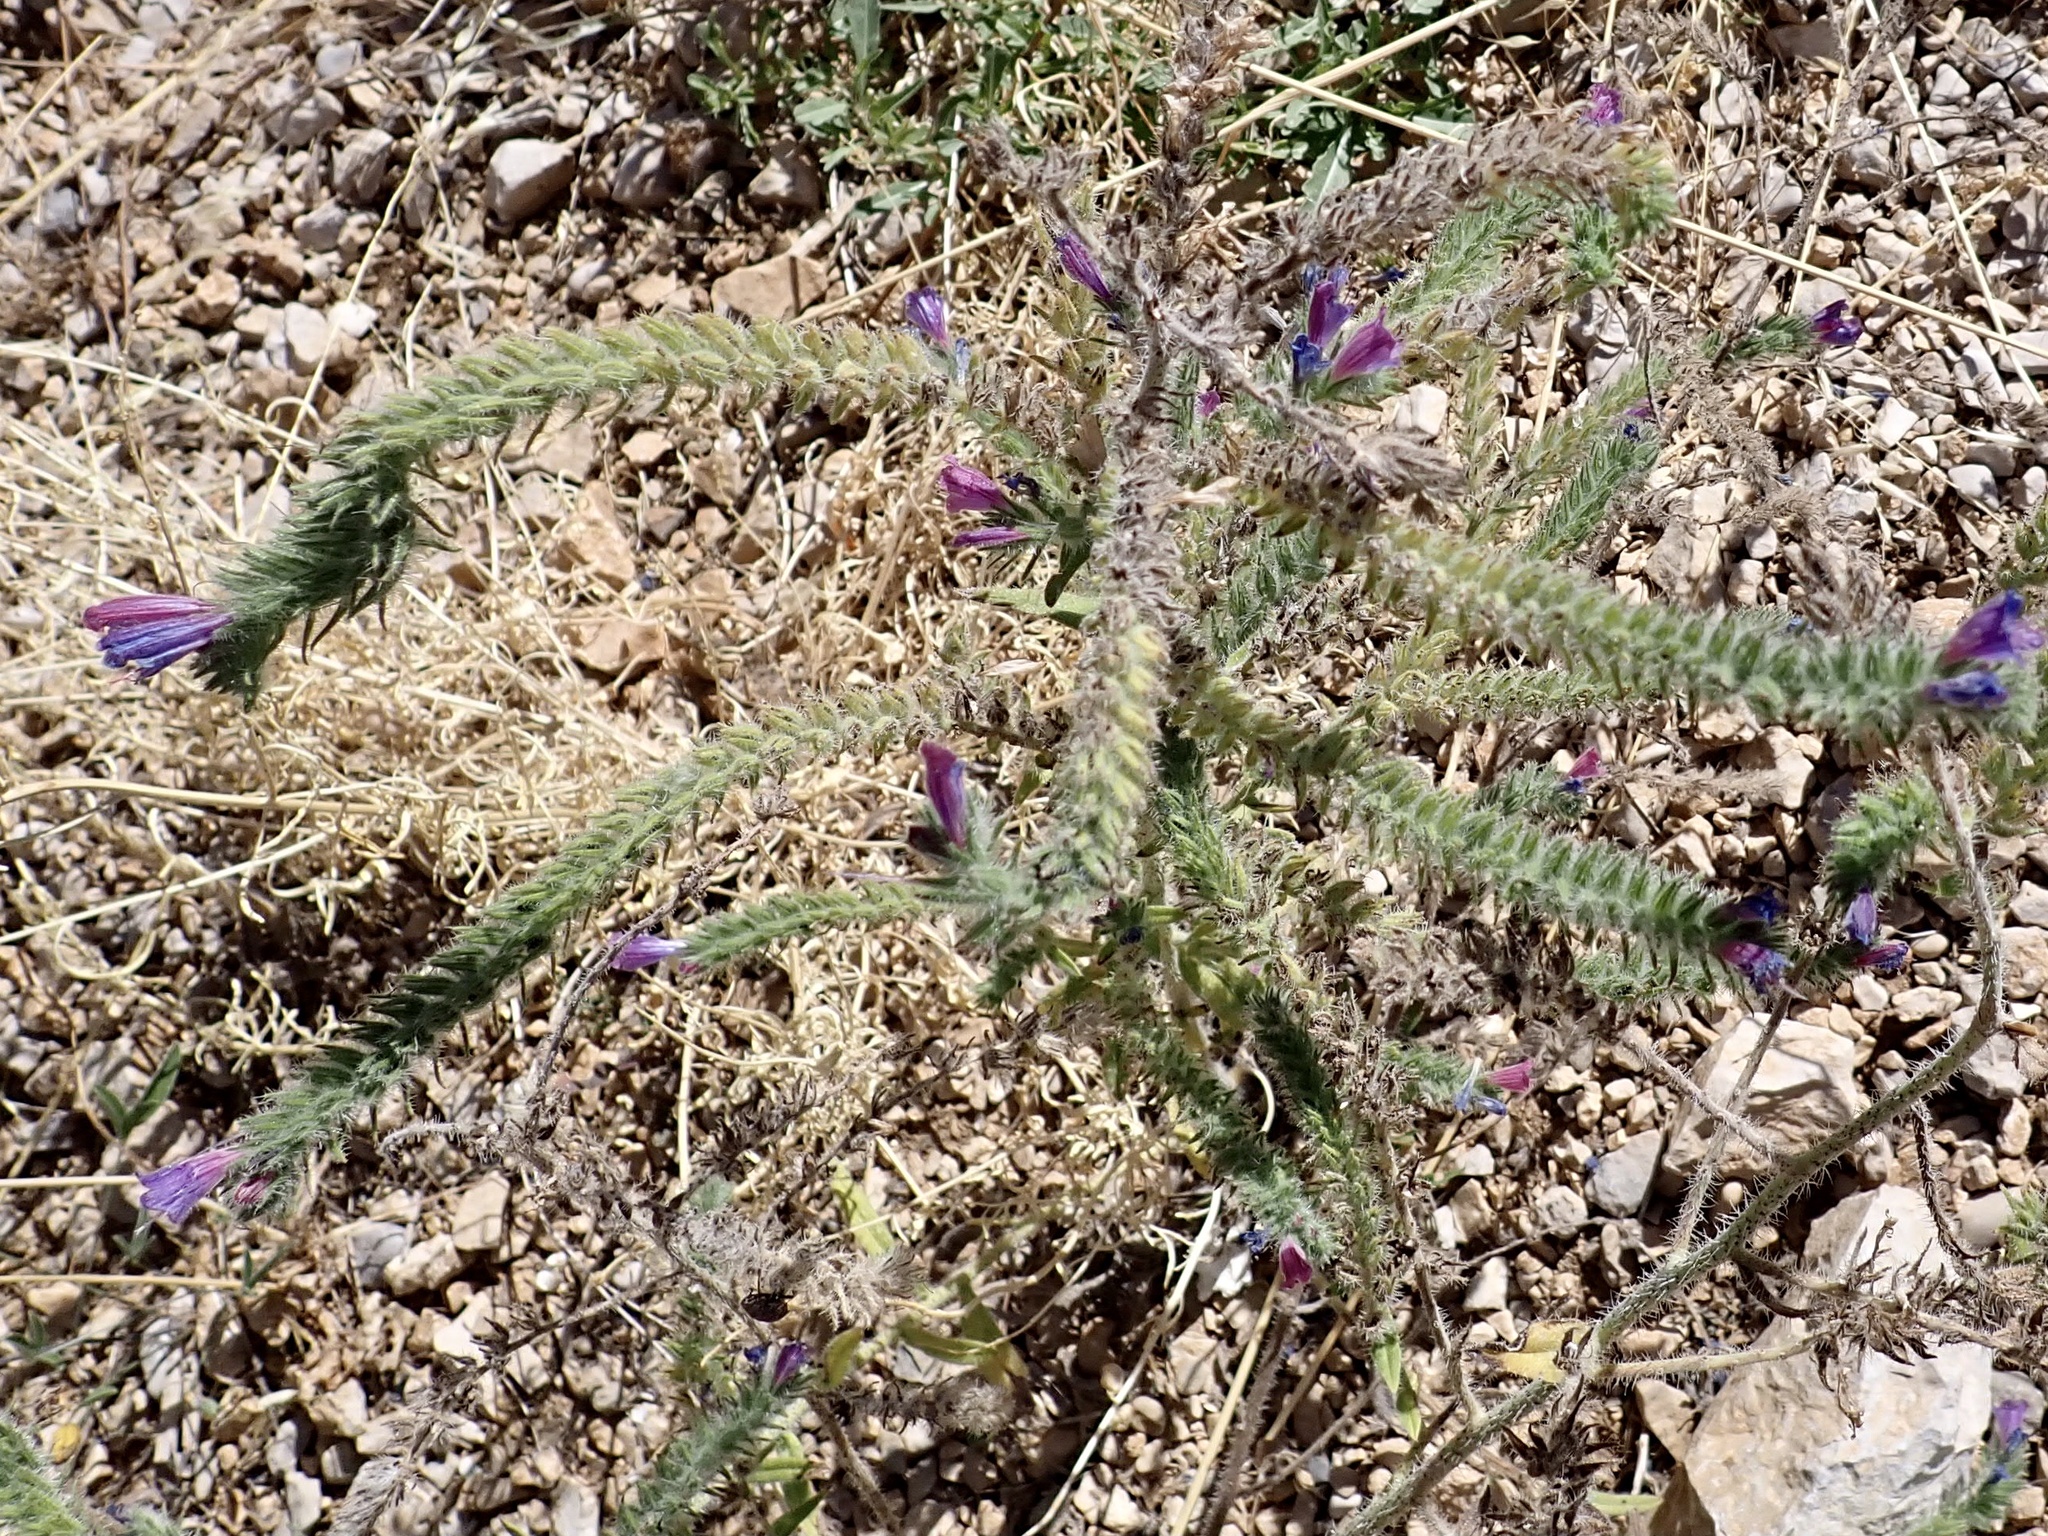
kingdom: Plantae
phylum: Tracheophyta
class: Magnoliopsida
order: Boraginales
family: Boraginaceae
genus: Echium
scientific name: Echium vulgare
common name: Common viper's bugloss
